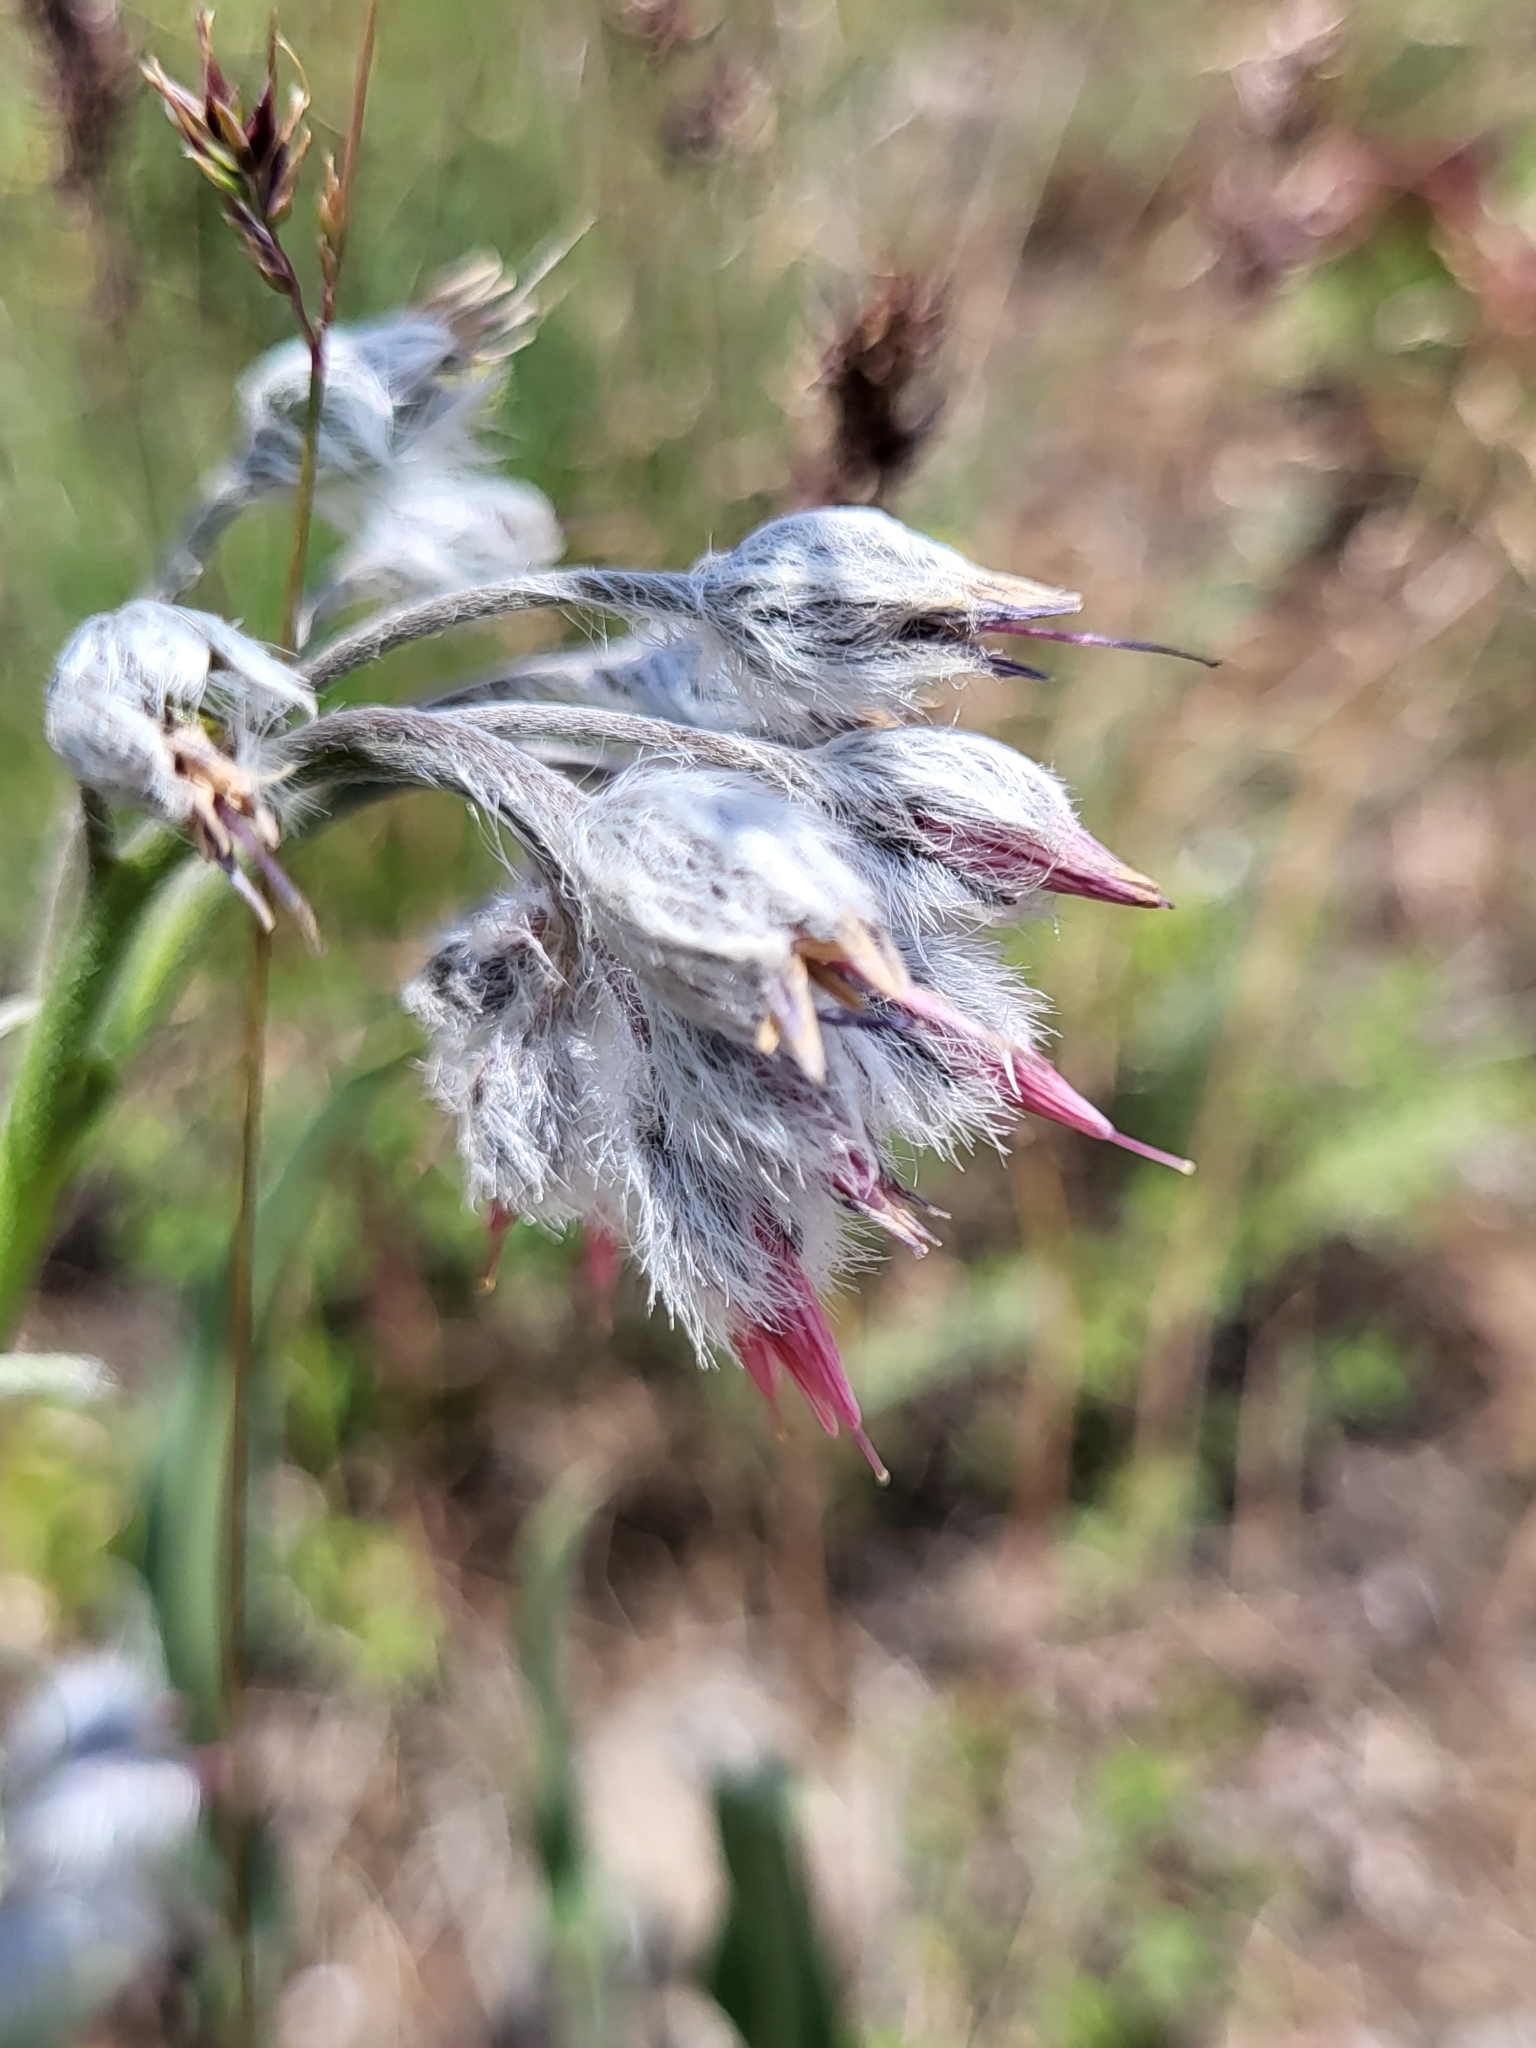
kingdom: Plantae
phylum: Tracheophyta
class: Magnoliopsida
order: Boraginales
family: Boraginaceae
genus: Rindera
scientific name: Rindera lanata
